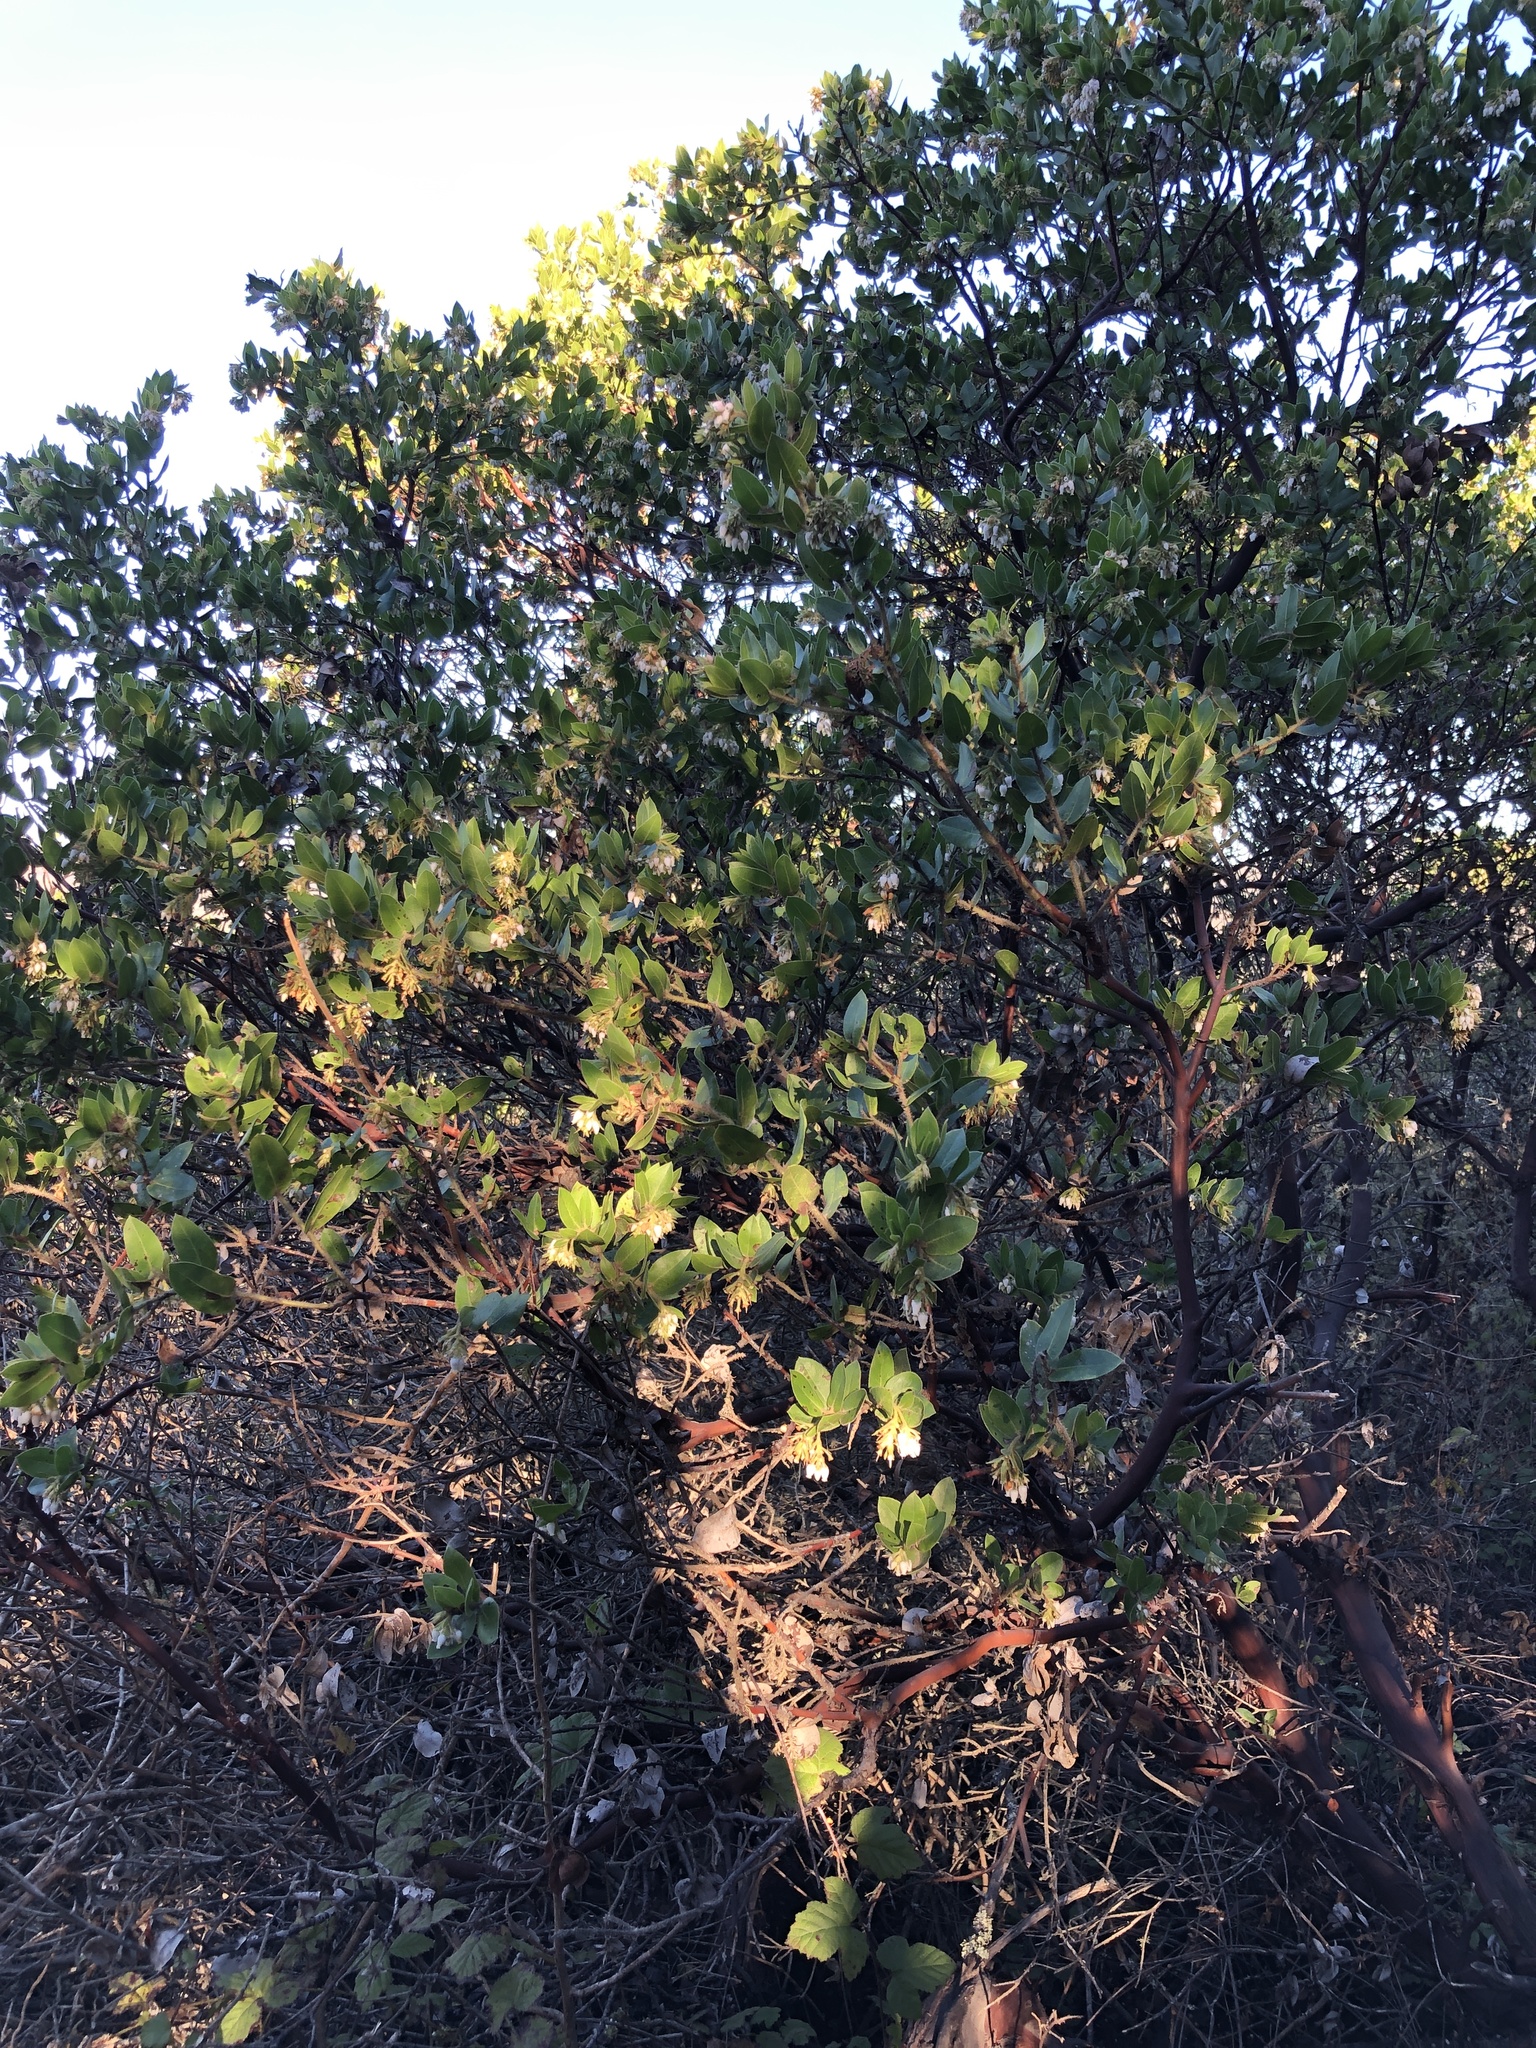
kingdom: Plantae
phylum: Tracheophyta
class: Magnoliopsida
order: Ericales
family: Ericaceae
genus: Arctostaphylos
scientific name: Arctostaphylos montaraensis
